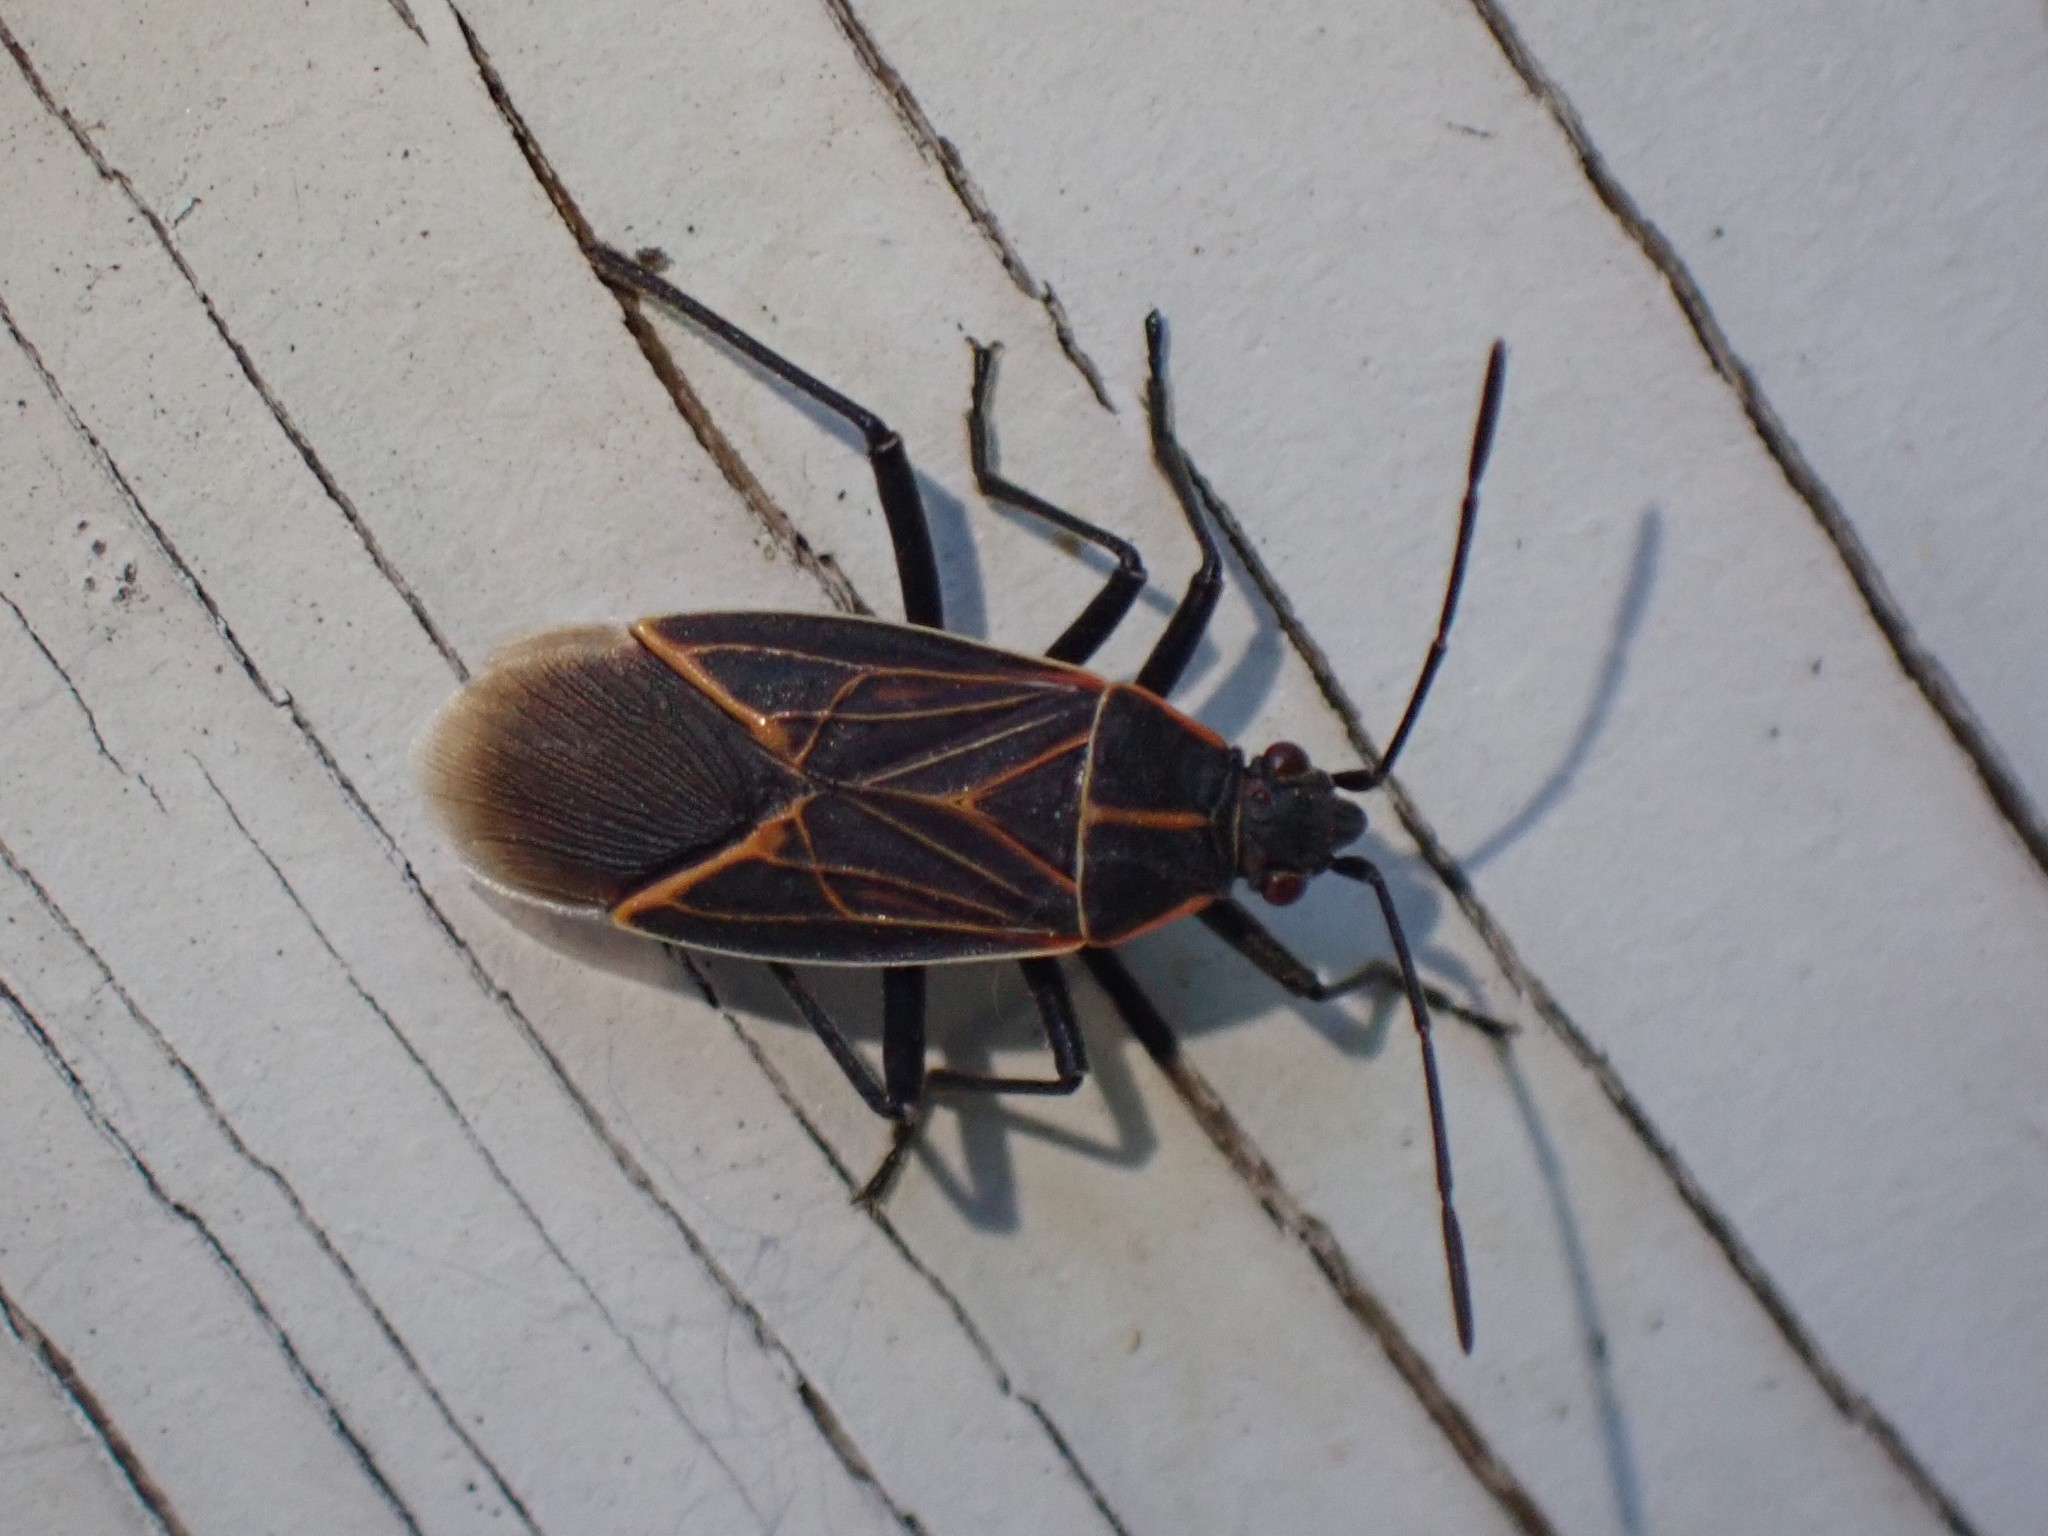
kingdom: Animalia
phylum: Arthropoda
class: Insecta
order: Hemiptera
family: Rhopalidae
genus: Boisea
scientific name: Boisea rubrolineata
